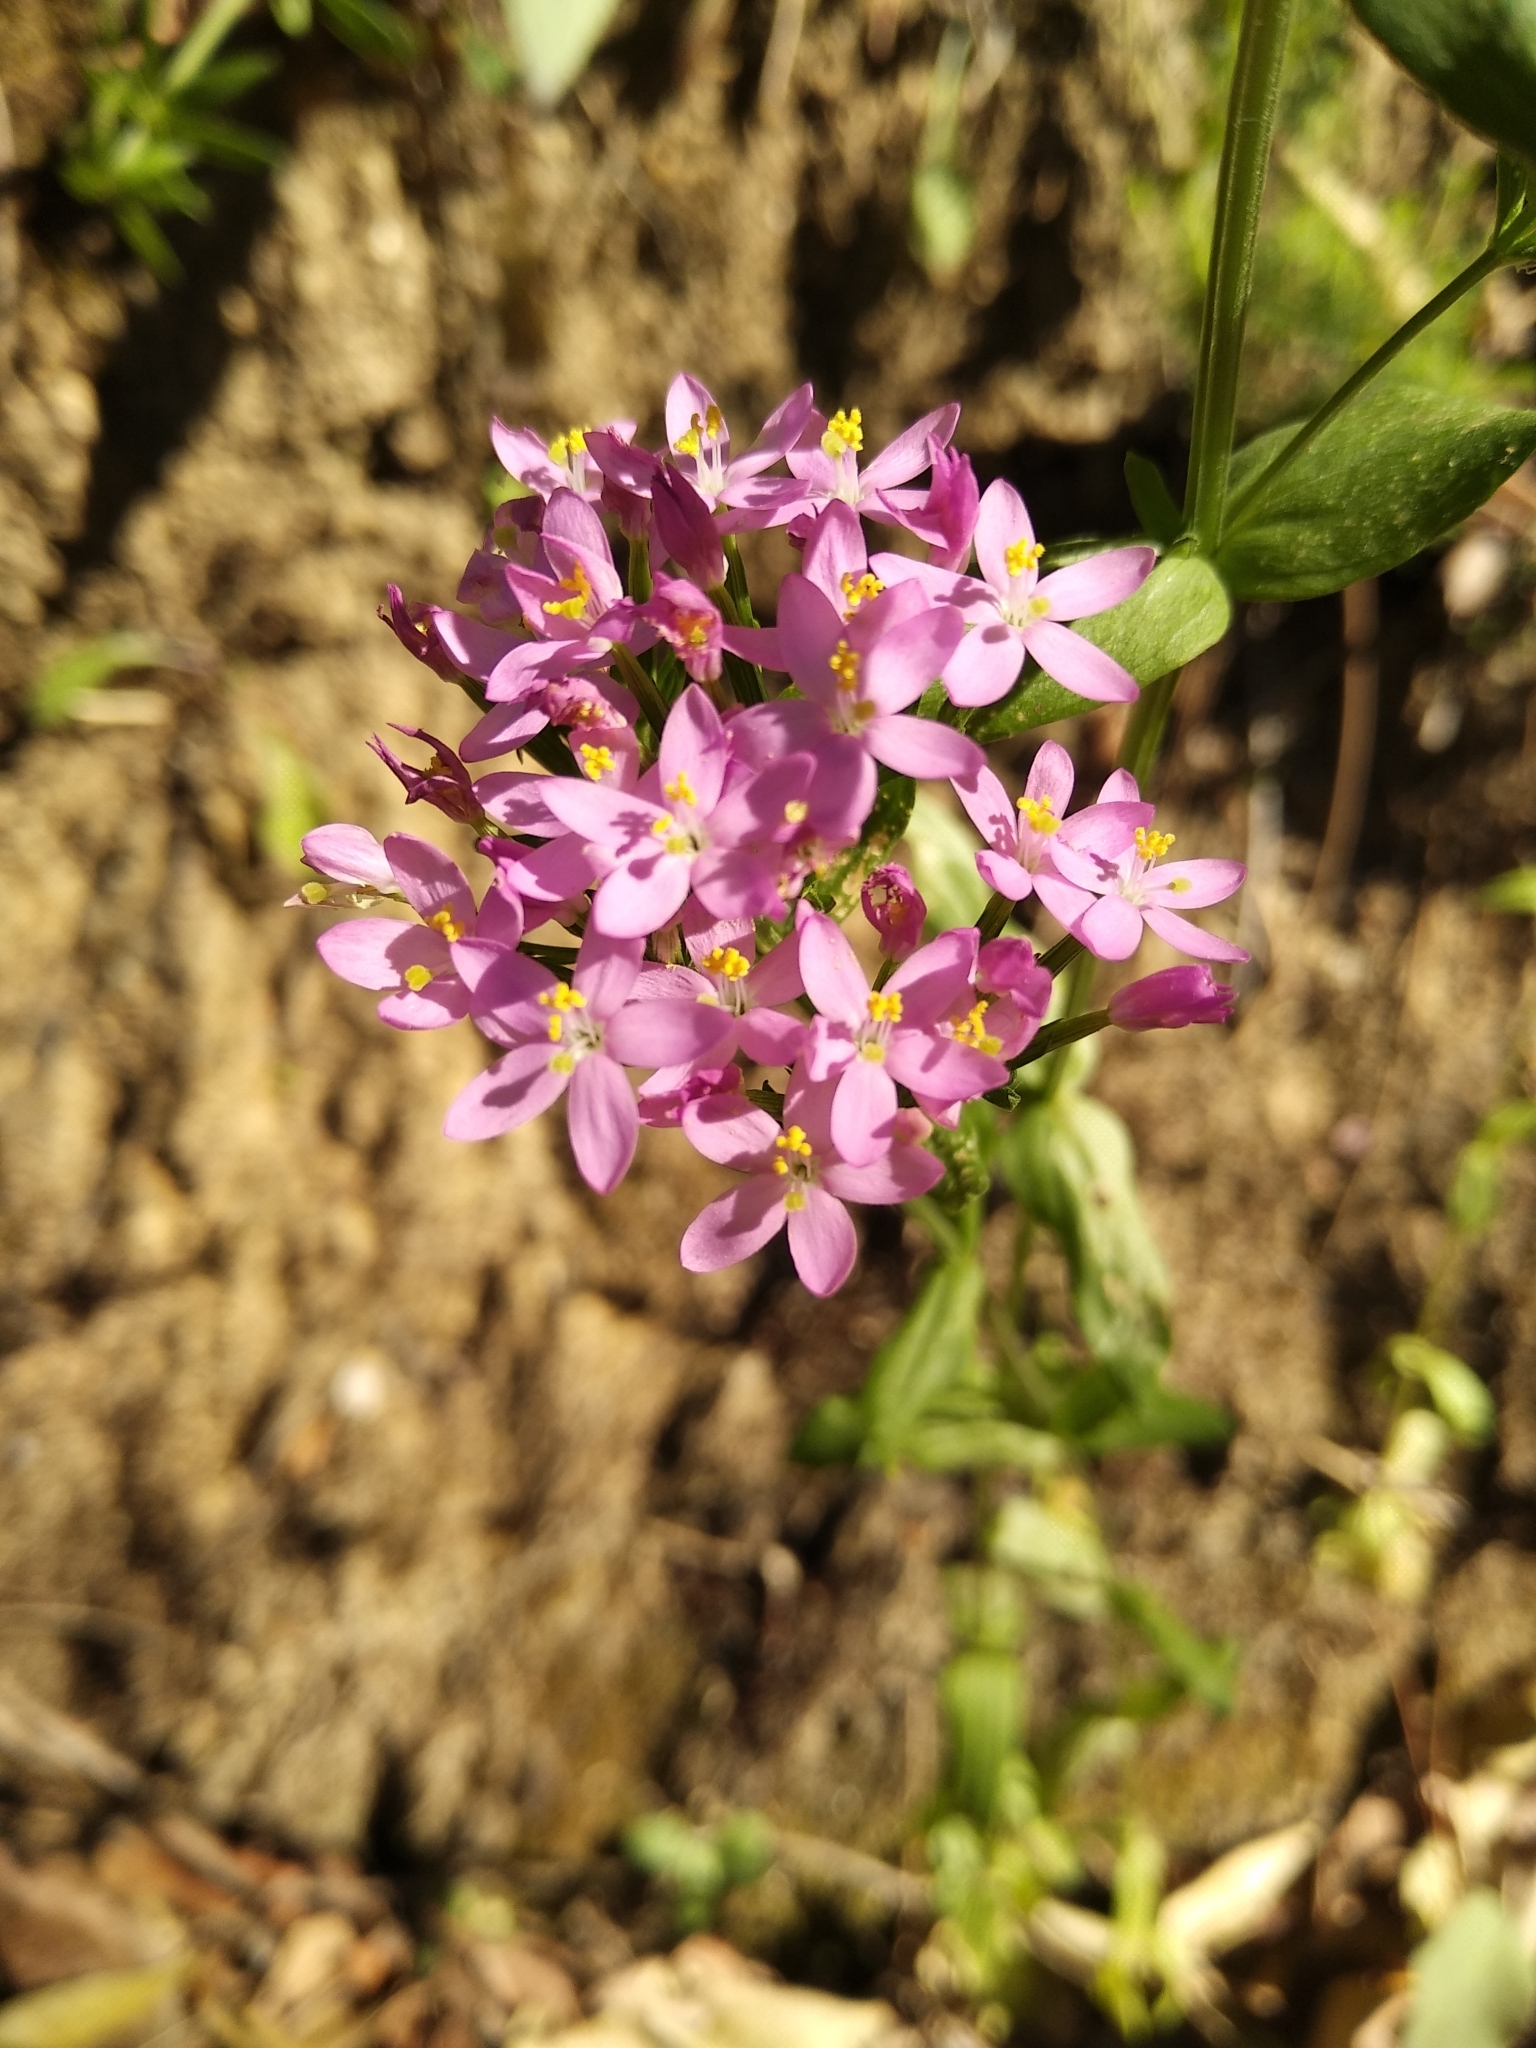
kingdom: Plantae
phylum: Tracheophyta
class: Magnoliopsida
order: Gentianales
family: Gentianaceae
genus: Centaurium
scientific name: Centaurium erythraea
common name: Common centaury
